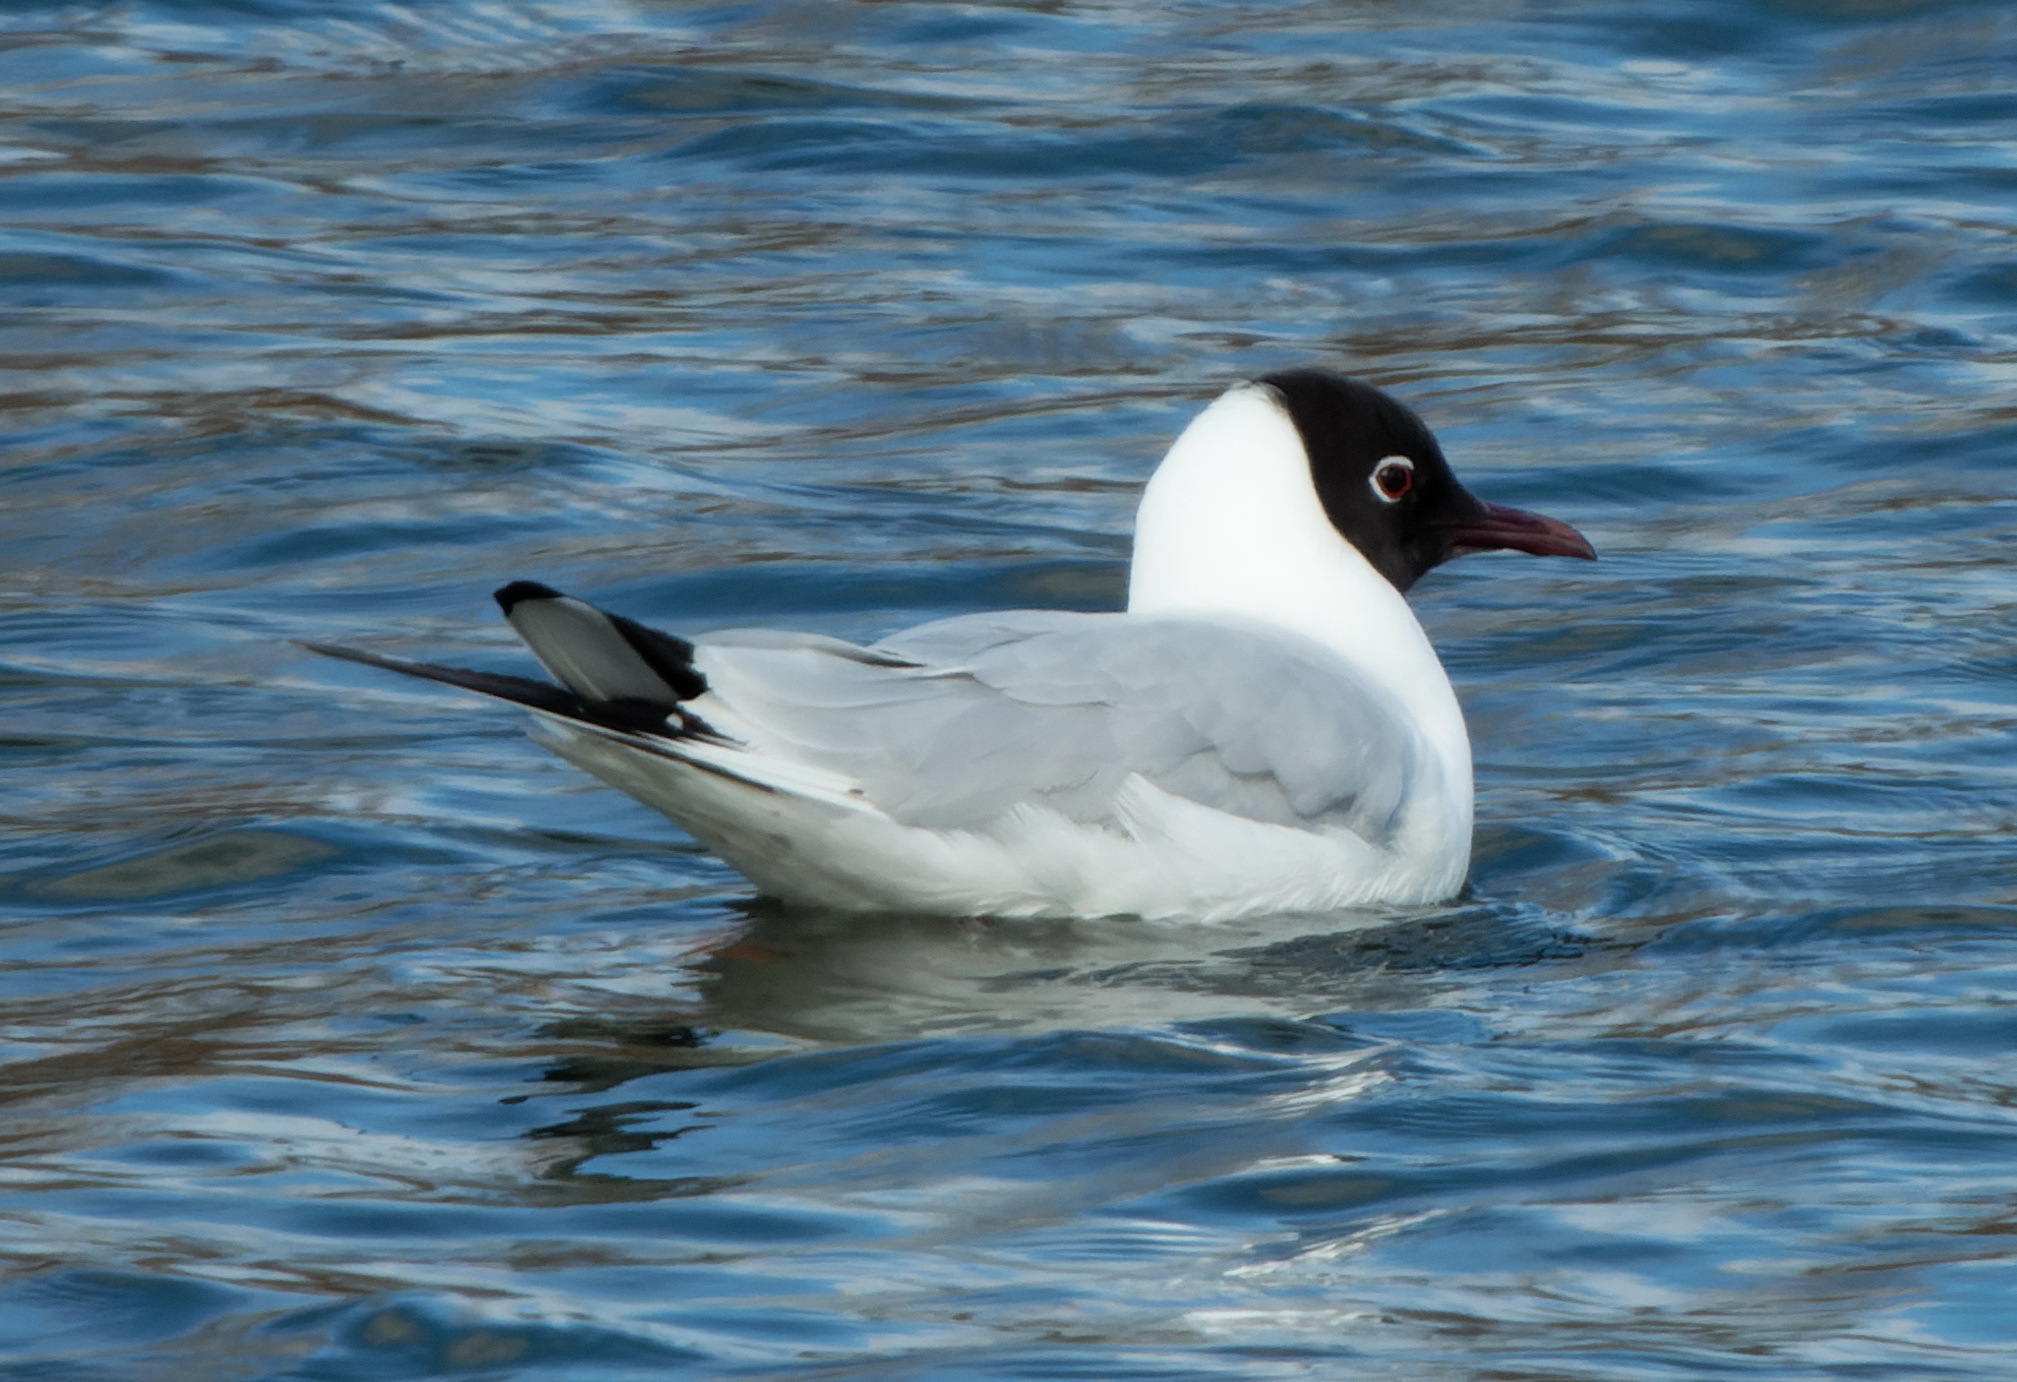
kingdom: Animalia
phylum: Chordata
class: Aves
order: Charadriiformes
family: Laridae
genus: Chroicocephalus
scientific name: Chroicocephalus ridibundus
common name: Black-headed gull
